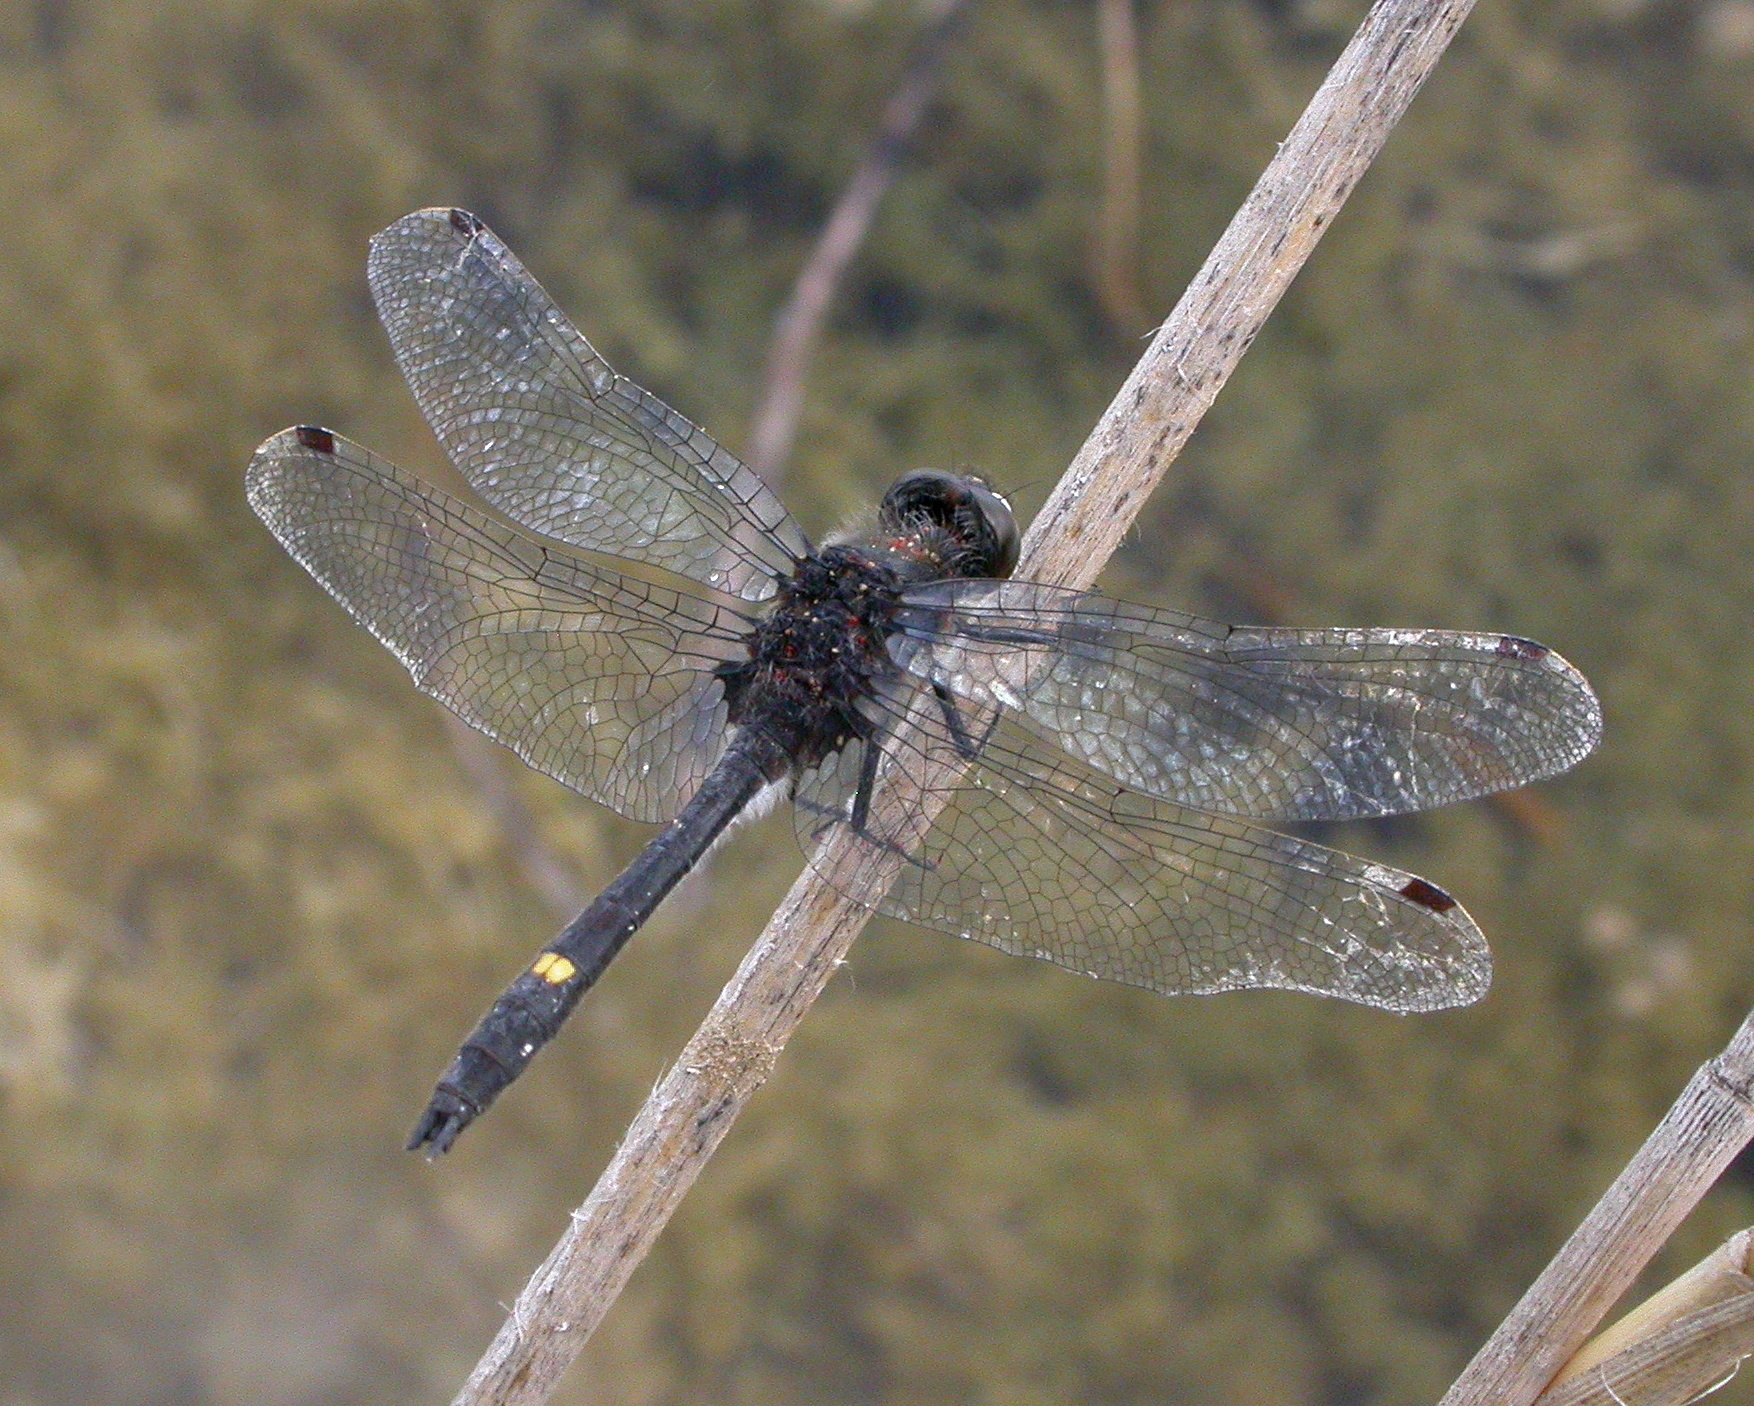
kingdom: Animalia
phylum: Arthropoda
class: Insecta
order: Odonata
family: Libellulidae
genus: Leucorrhinia
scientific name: Leucorrhinia intacta
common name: Dot-tailed whiteface
